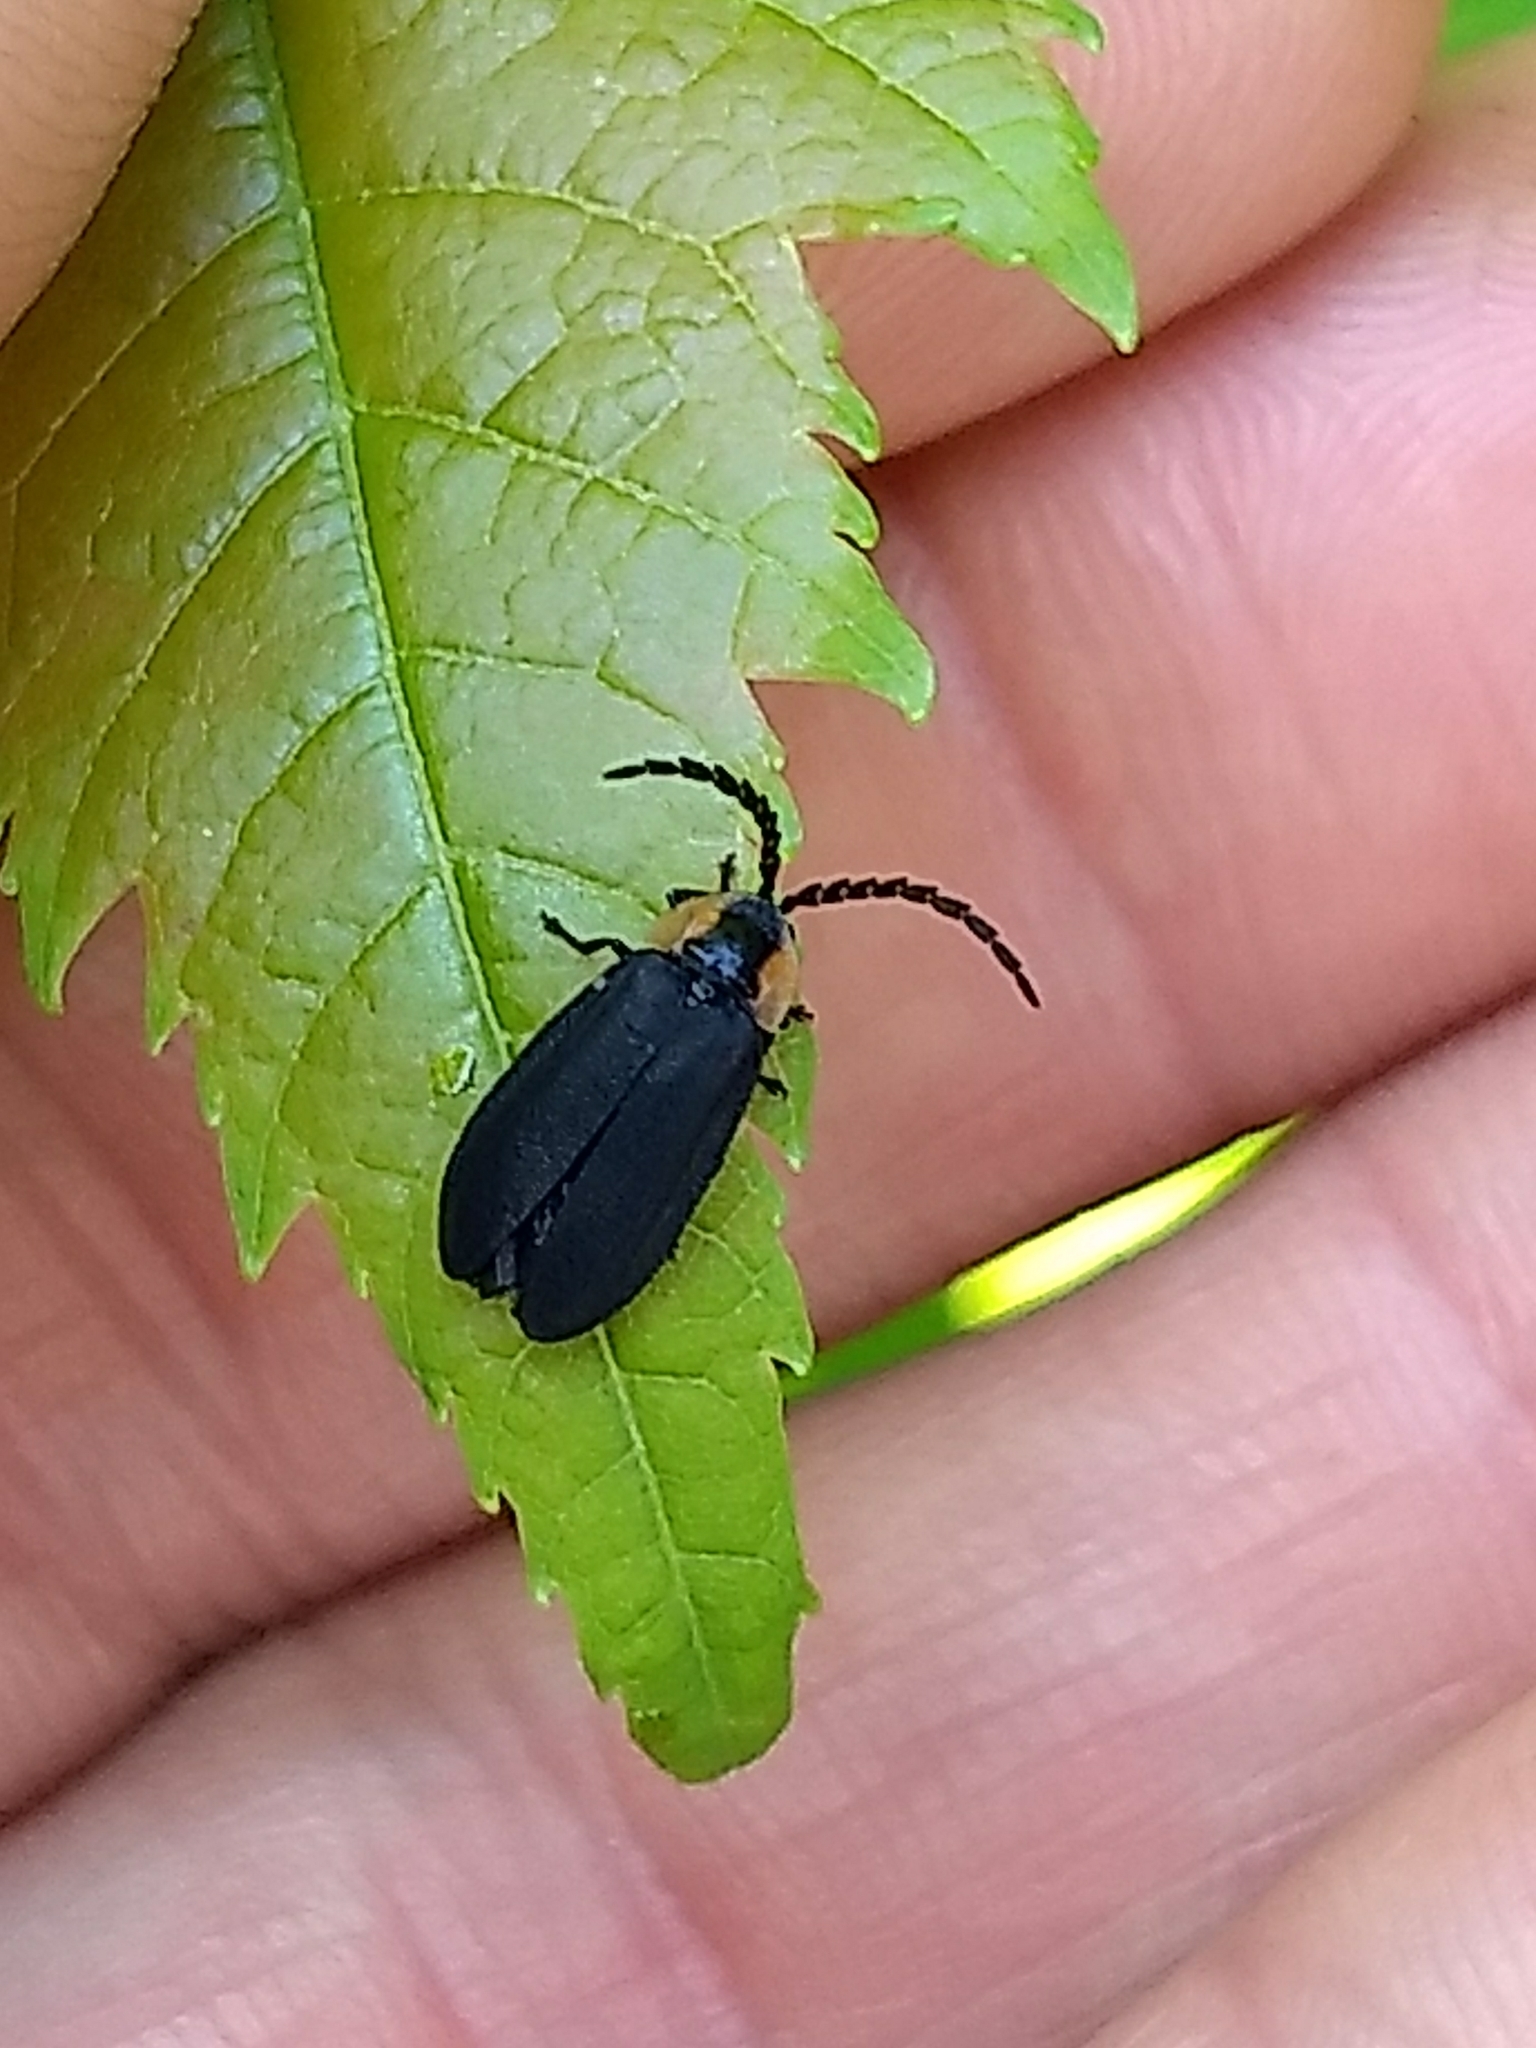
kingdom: Animalia
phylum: Arthropoda
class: Insecta
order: Coleoptera
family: Lampyridae
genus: Lucidota
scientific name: Lucidota atra
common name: Black firefly
